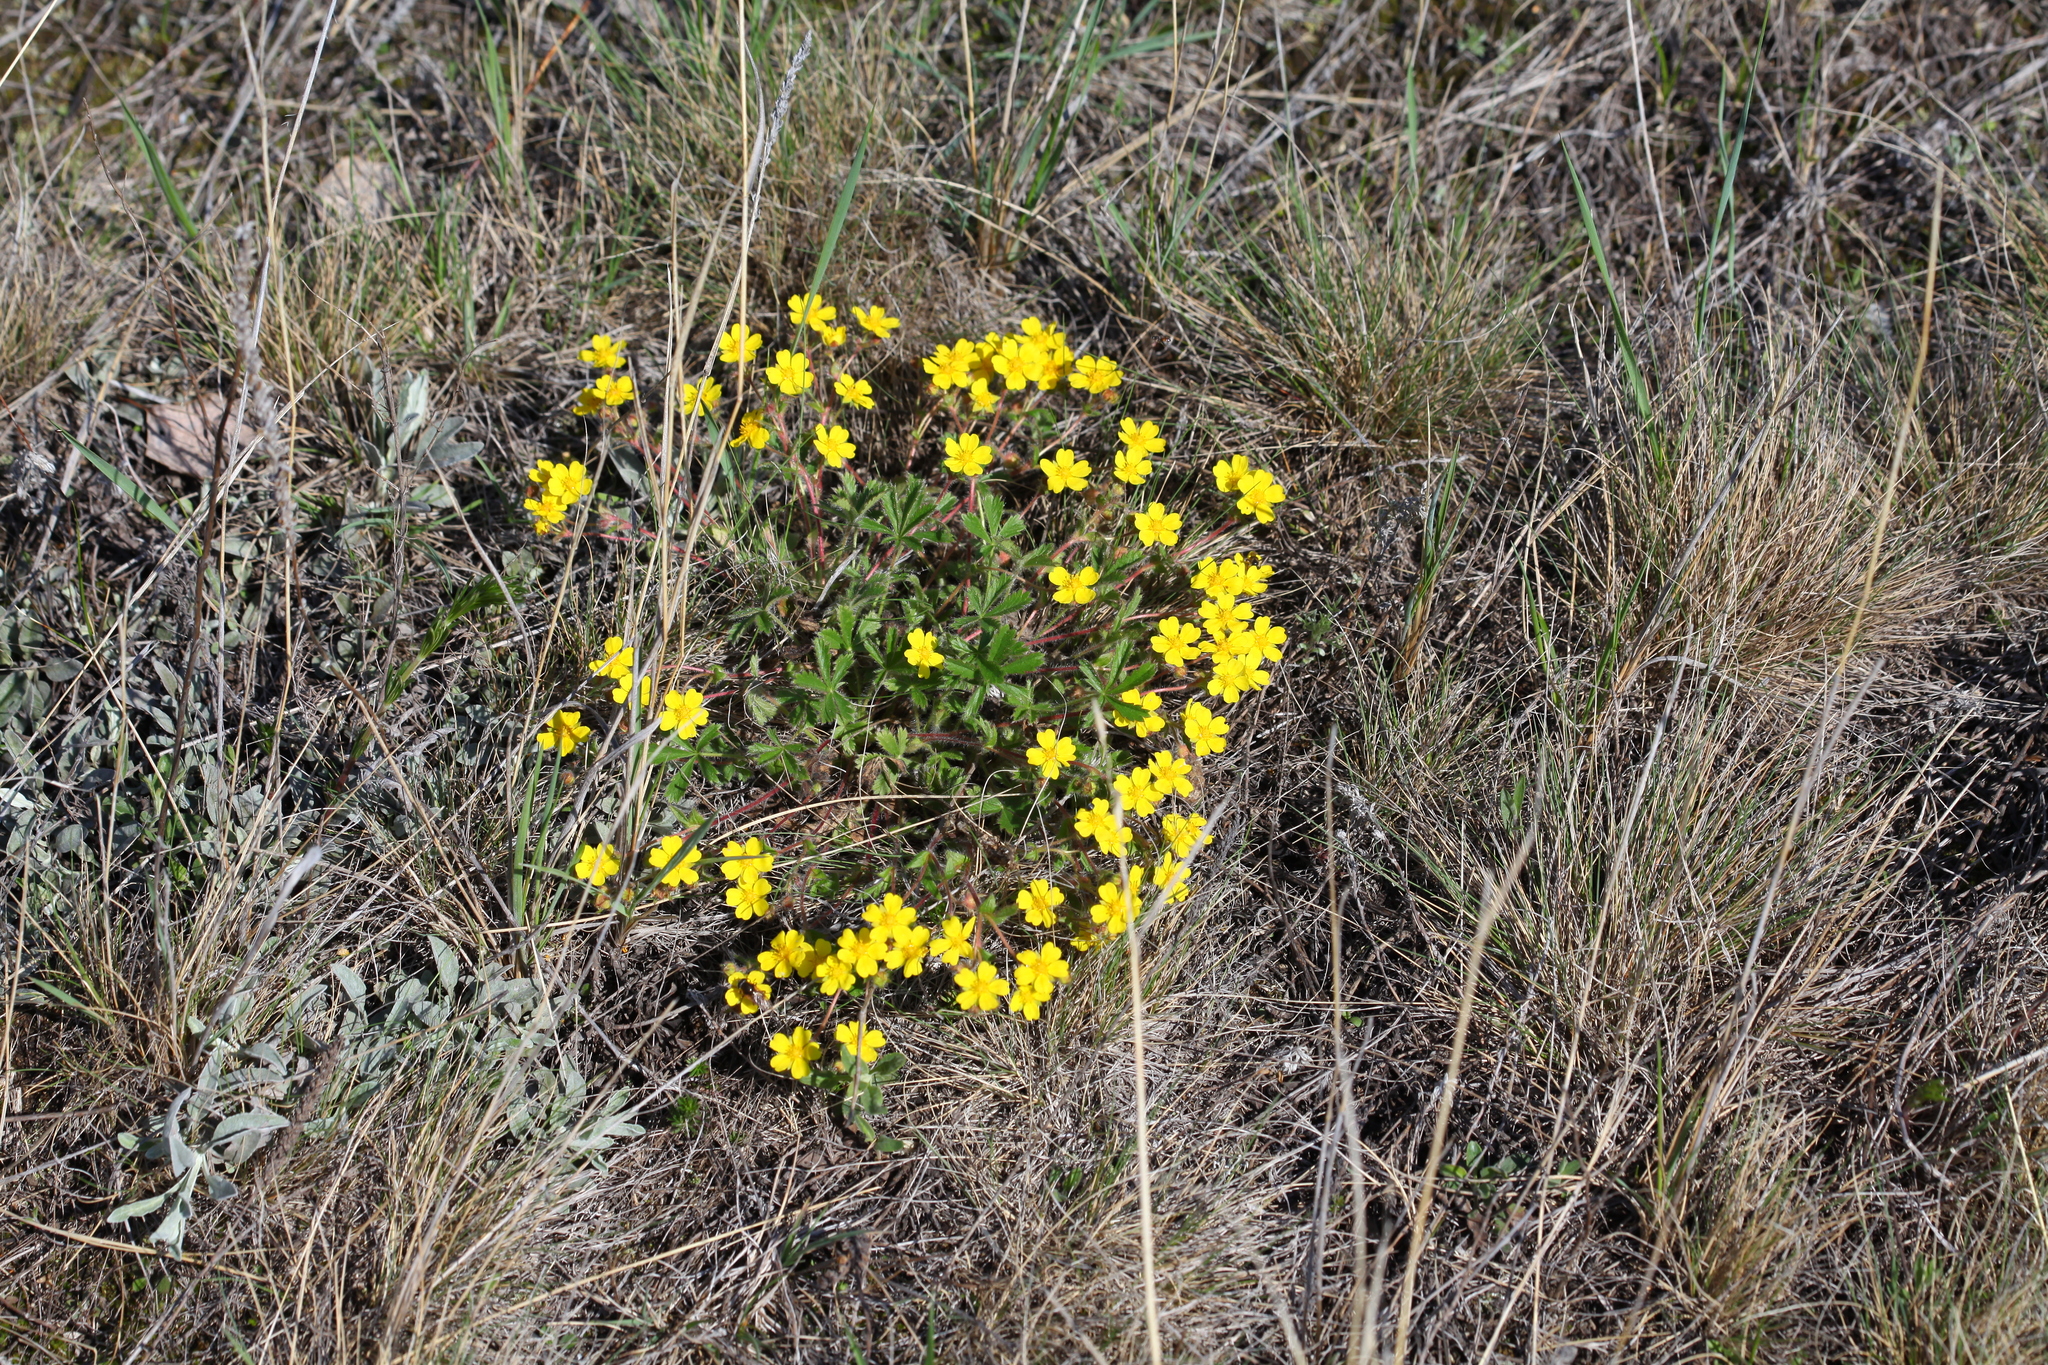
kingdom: Plantae
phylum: Tracheophyta
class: Magnoliopsida
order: Rosales
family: Rosaceae
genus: Potentilla
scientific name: Potentilla humifusa
